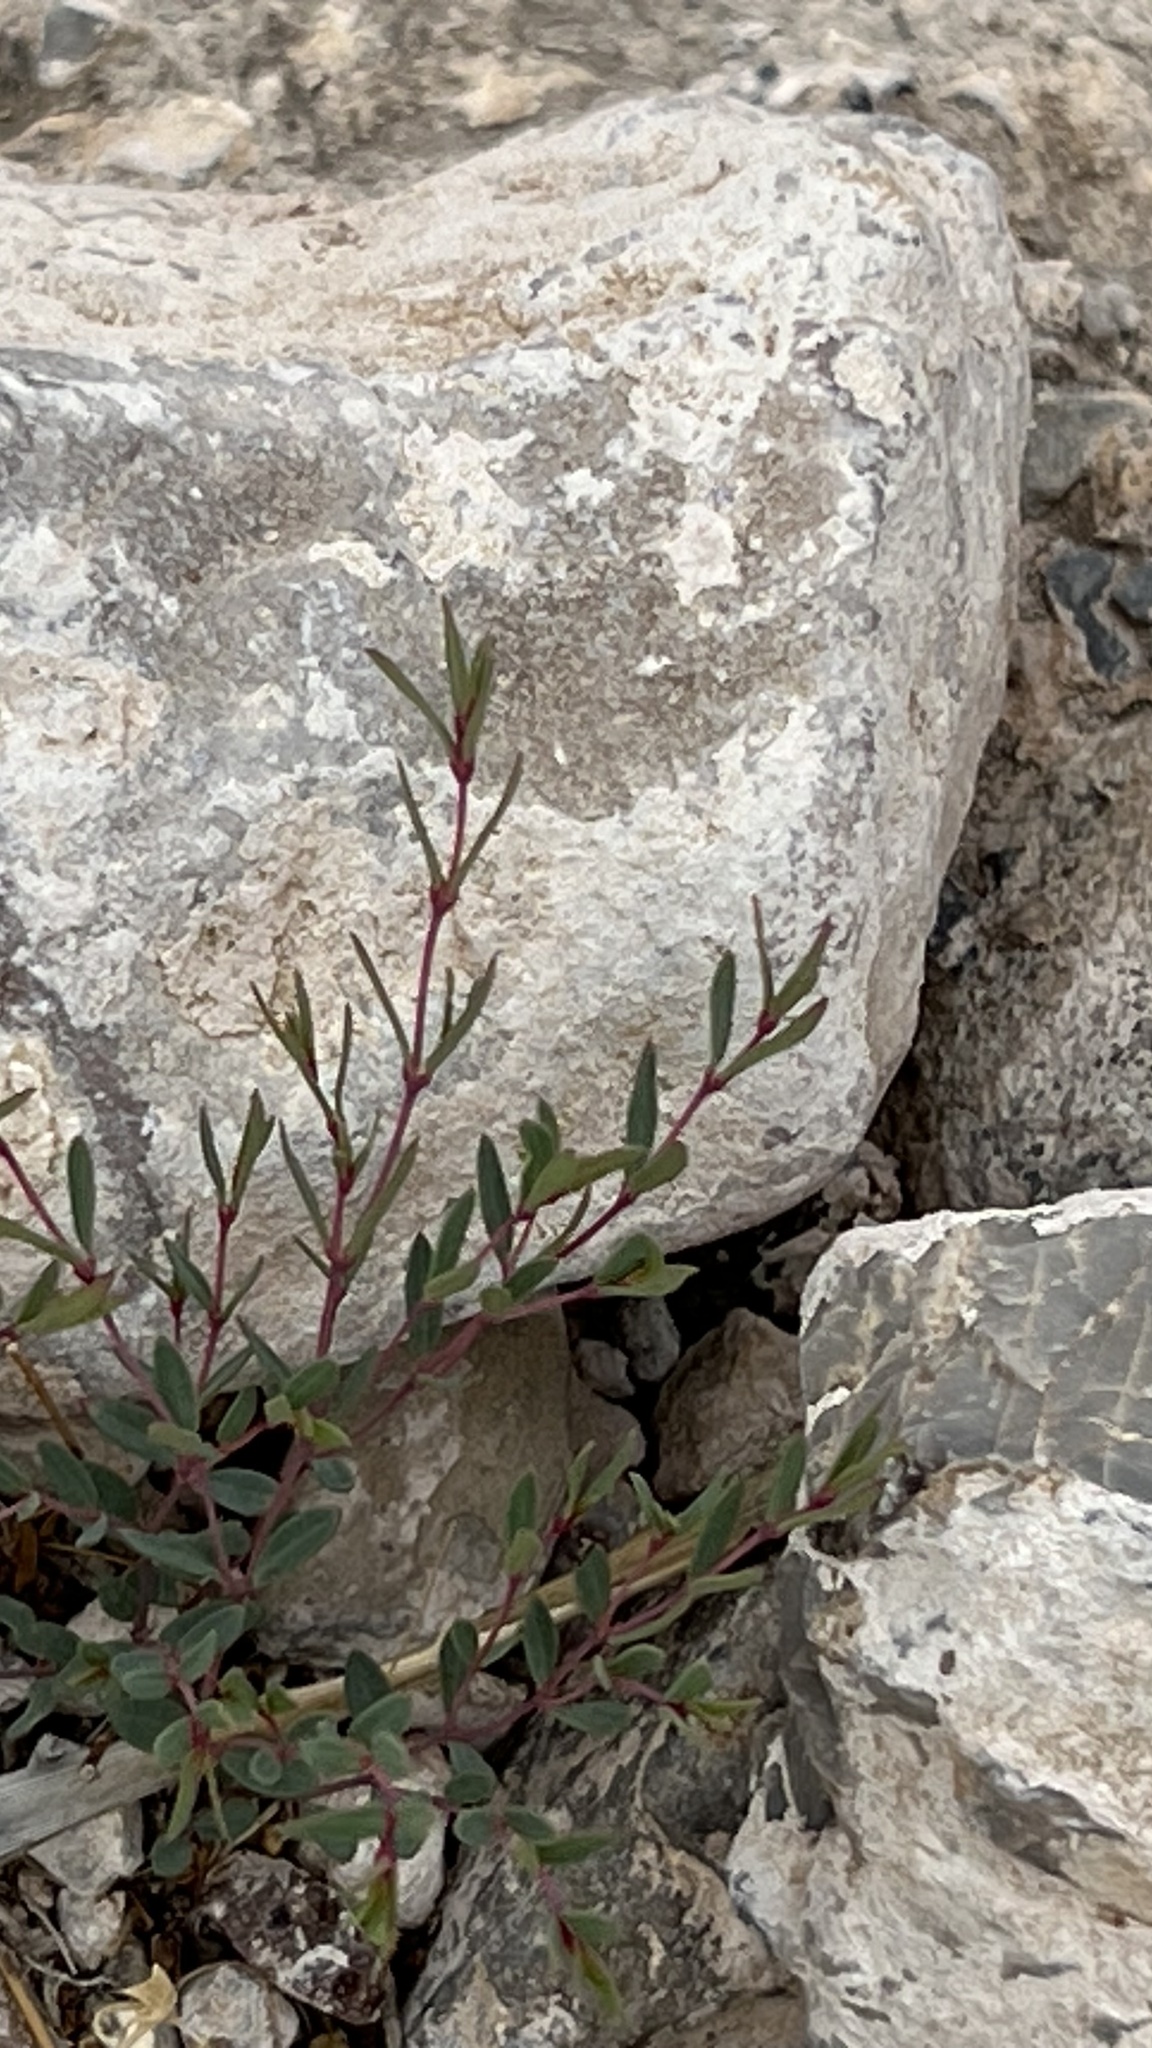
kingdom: Plantae
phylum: Tracheophyta
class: Magnoliopsida
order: Malpighiales
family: Euphorbiaceae
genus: Euphorbia
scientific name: Euphorbia chaetocalyx
